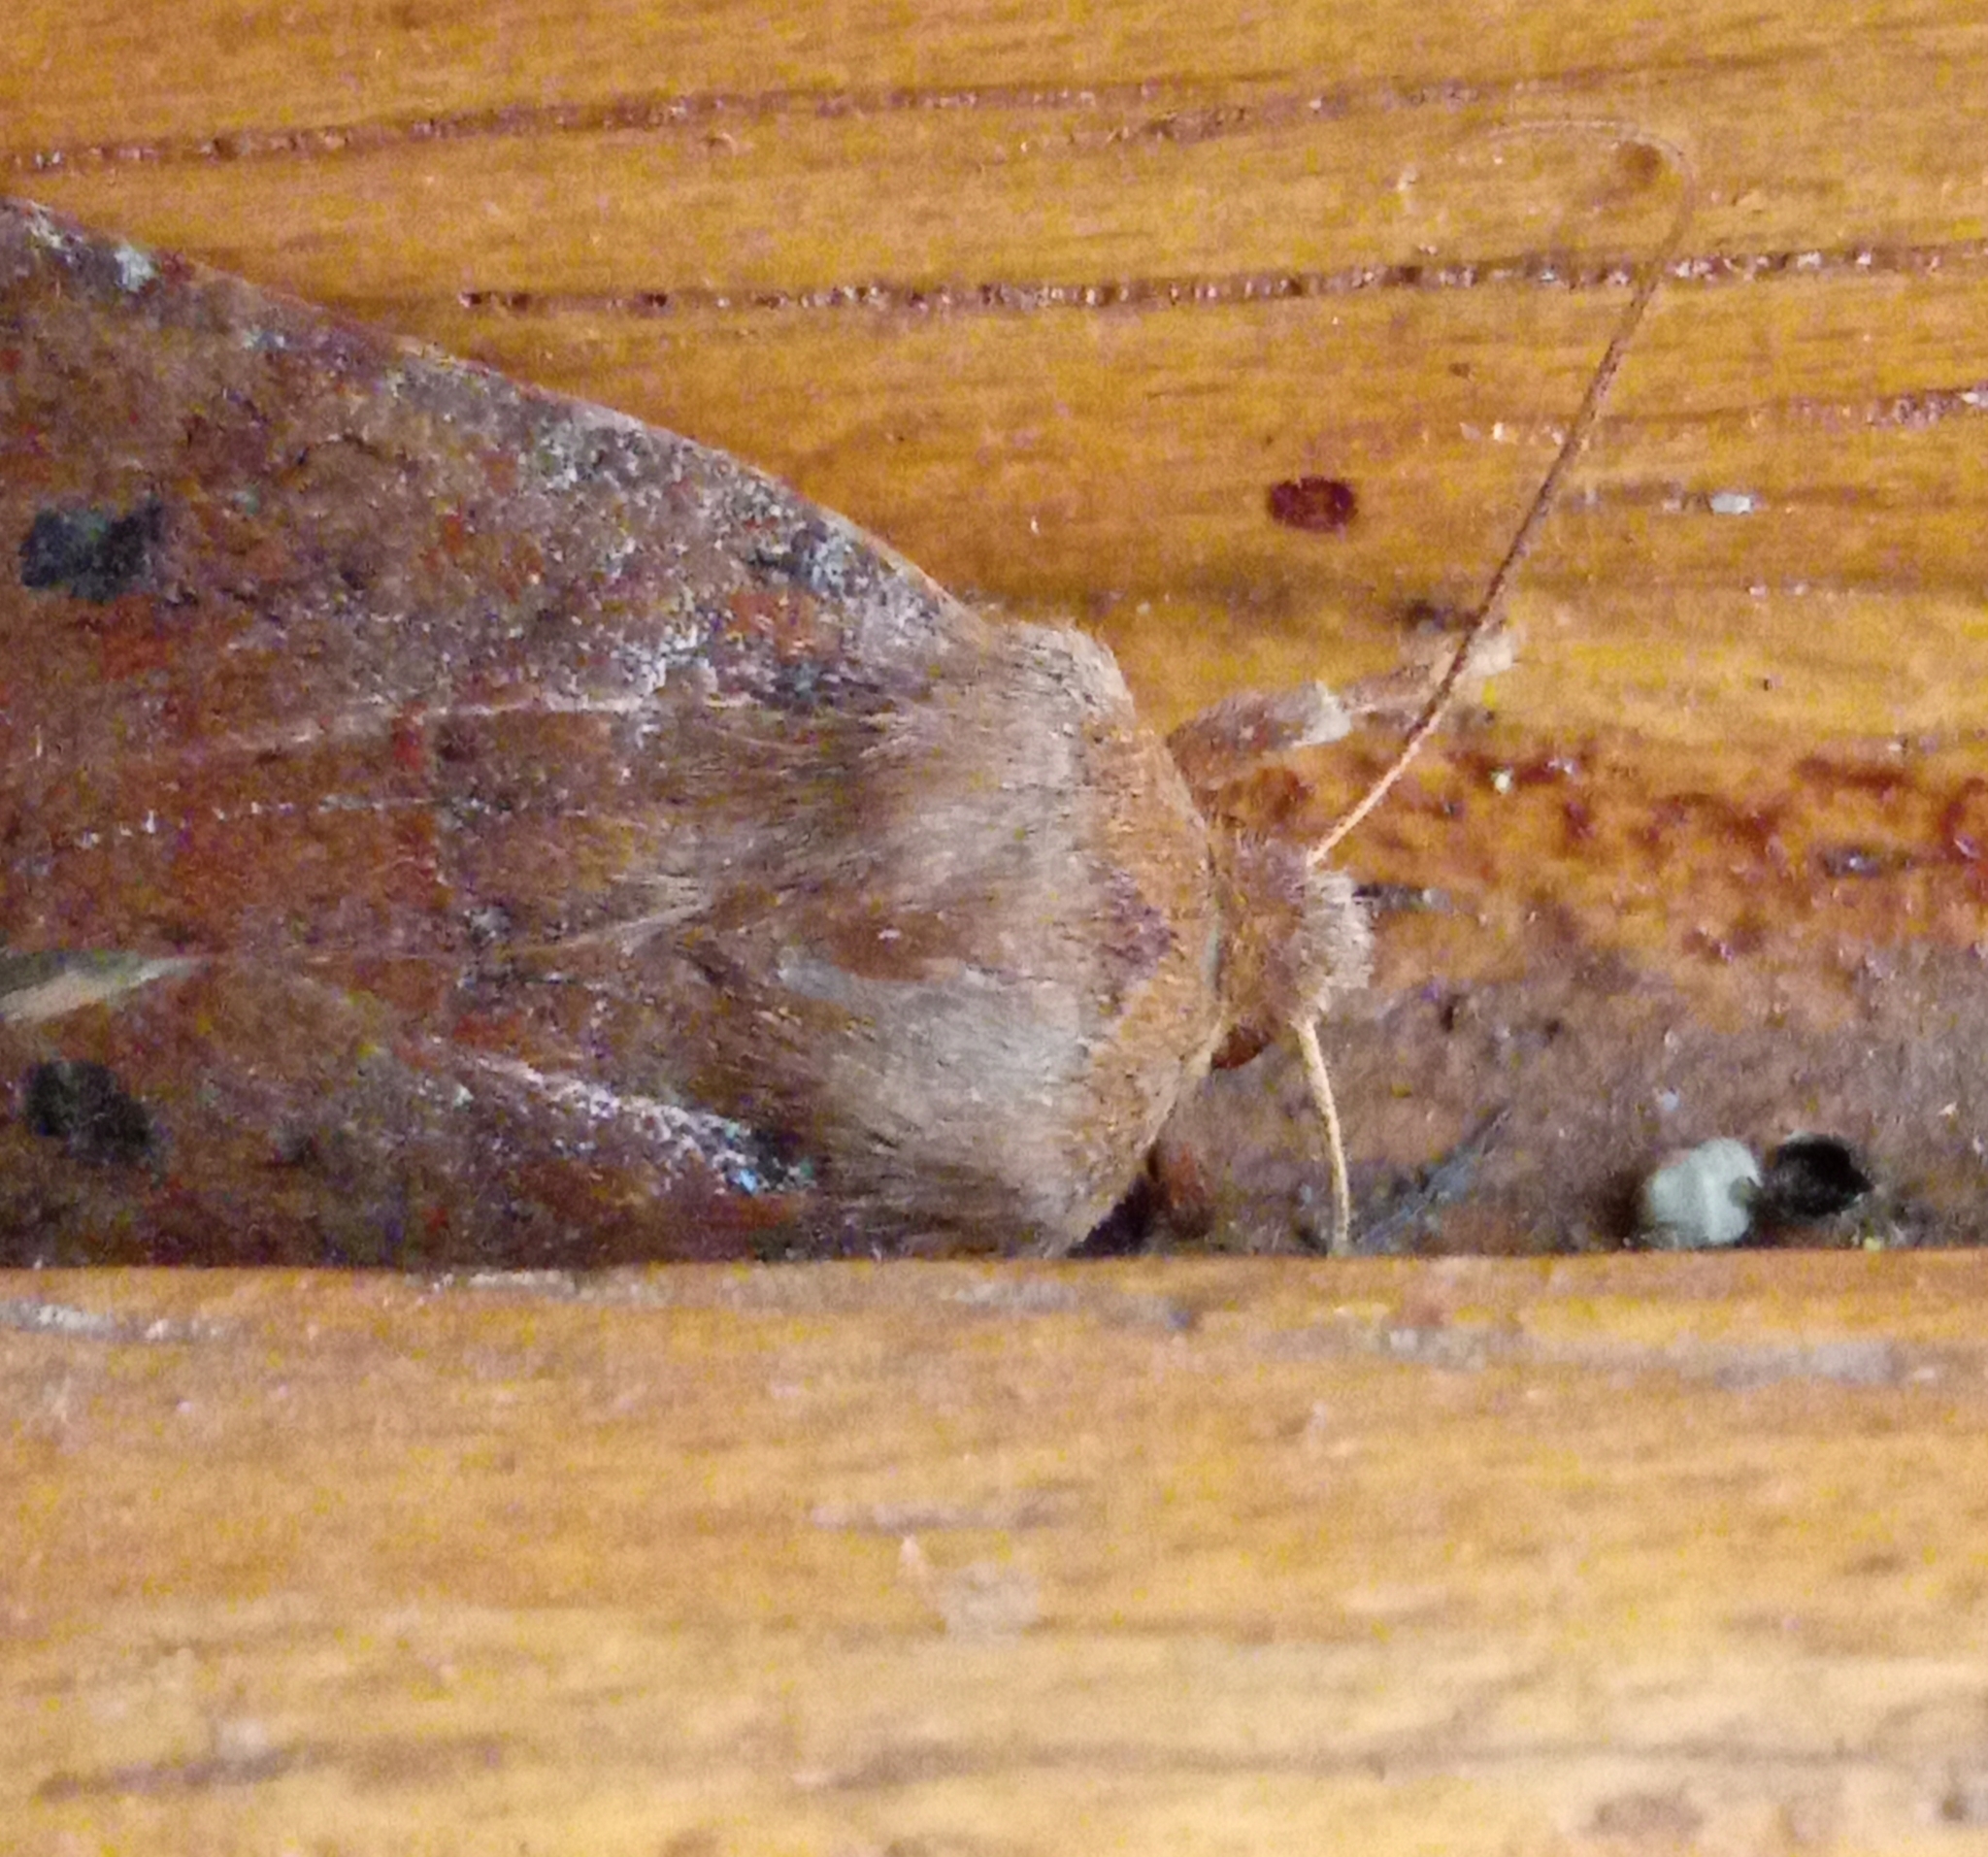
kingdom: Animalia
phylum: Arthropoda
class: Insecta
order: Lepidoptera
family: Noctuidae
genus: Conistra
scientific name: Conistra vaccinii
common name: Chestnut
